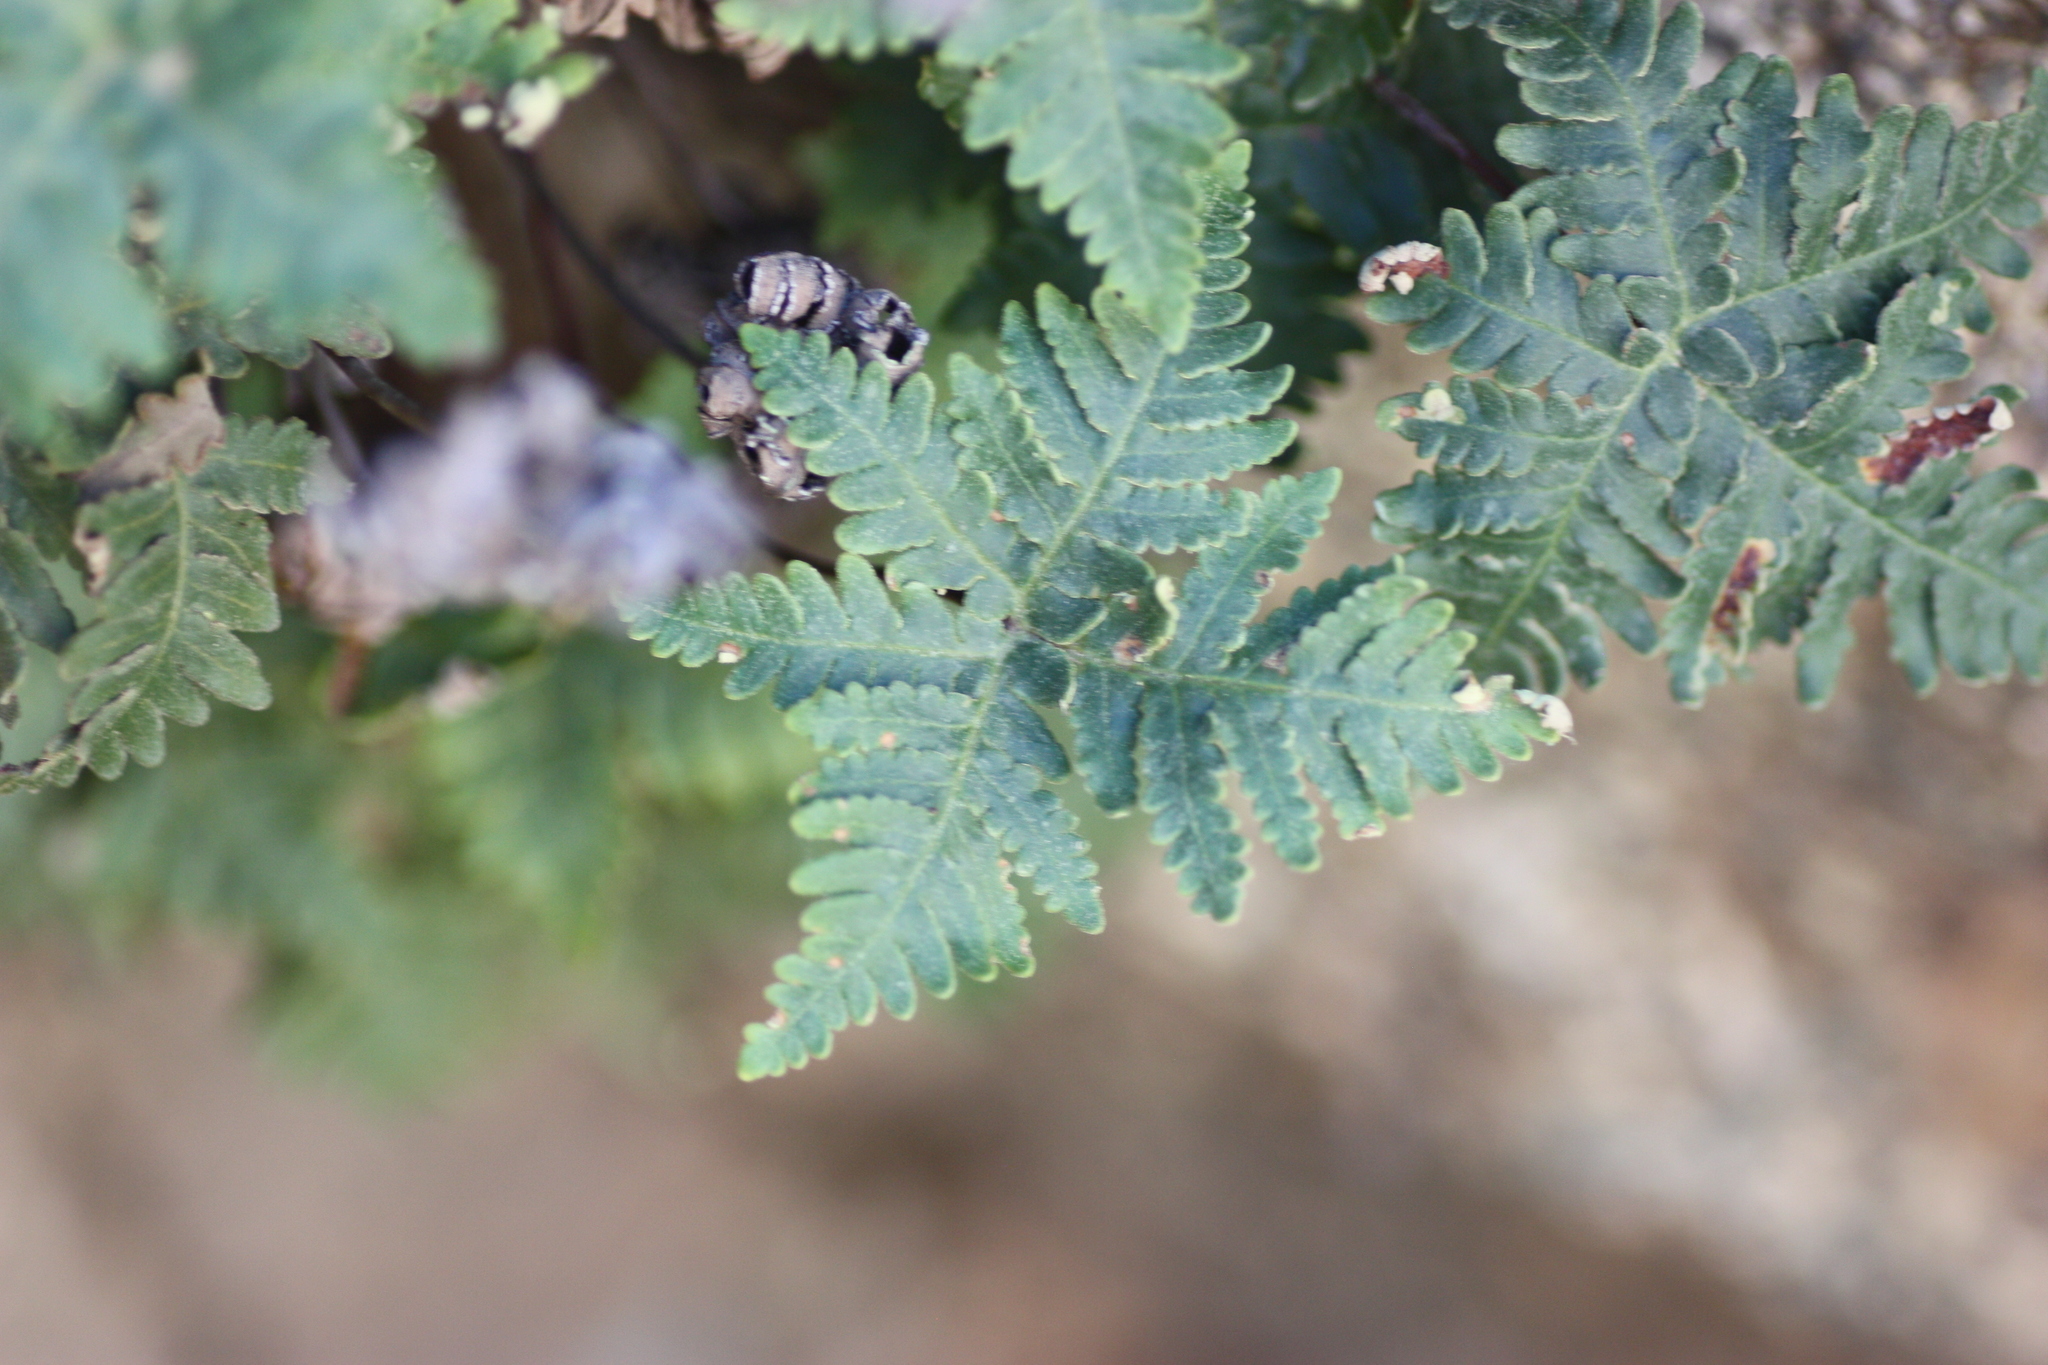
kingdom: Plantae
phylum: Tracheophyta
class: Polypodiopsida
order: Polypodiales
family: Pteridaceae
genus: Notholaena
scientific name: Notholaena standleyi
